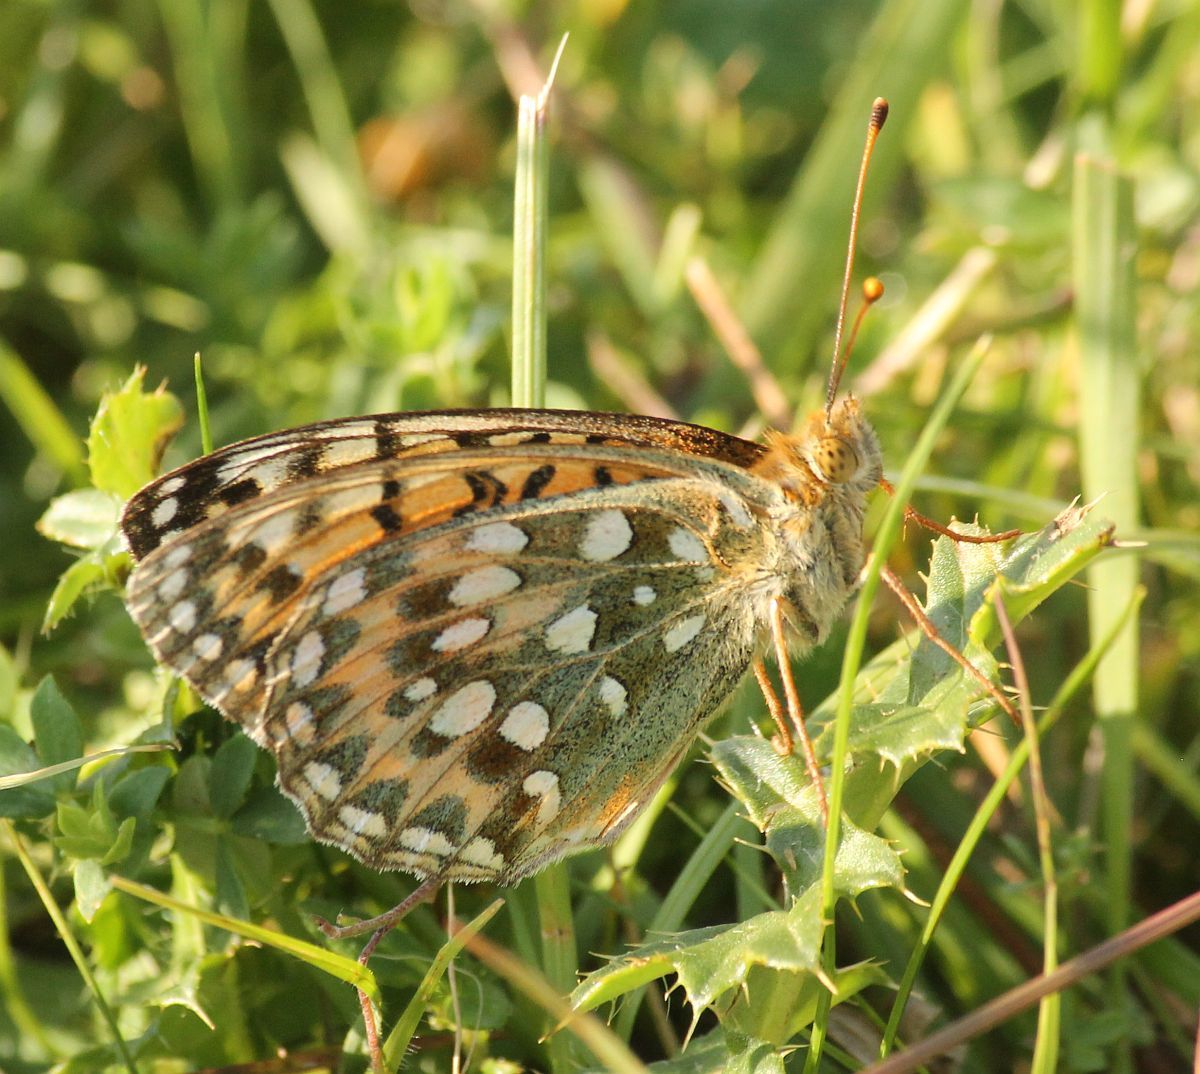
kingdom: Animalia
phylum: Arthropoda
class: Insecta
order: Lepidoptera
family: Nymphalidae
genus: Speyeria
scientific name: Speyeria aglaja
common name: Dark green fritillary
